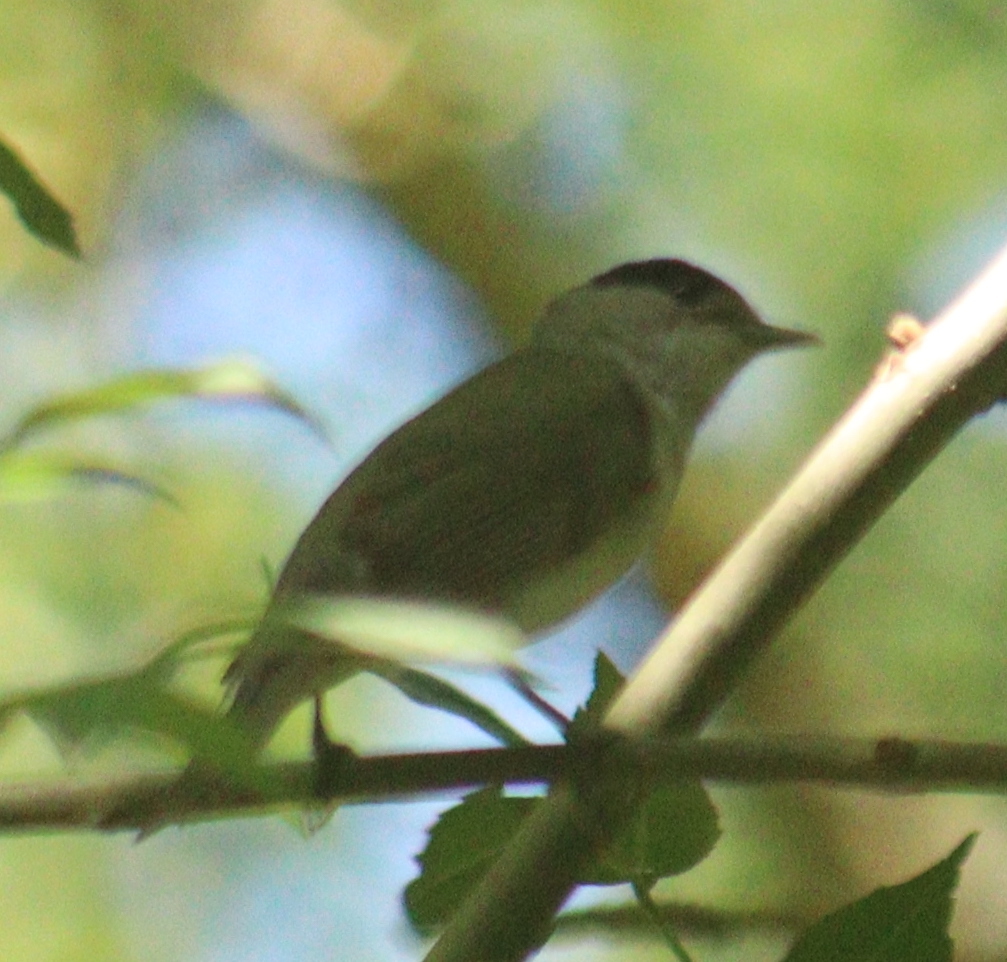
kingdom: Animalia
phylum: Chordata
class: Aves
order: Passeriformes
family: Sylviidae
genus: Sylvia
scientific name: Sylvia atricapilla
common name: Eurasian blackcap
